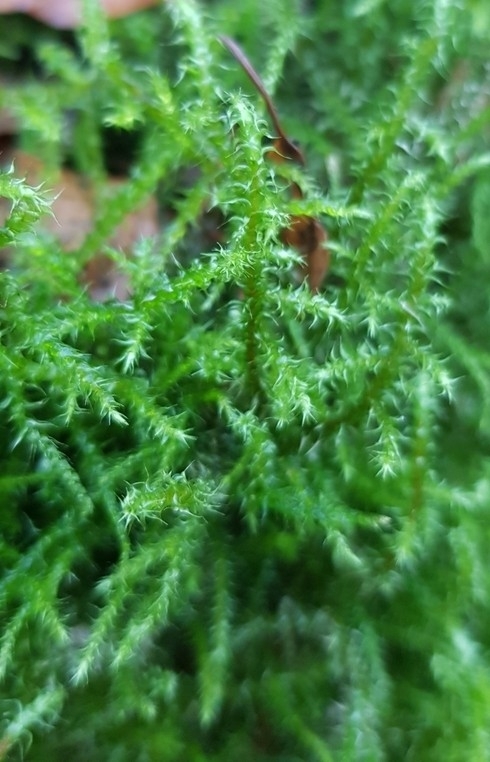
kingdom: Plantae
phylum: Bryophyta
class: Bryopsida
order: Hypnales
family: Hylocomiaceae
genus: Rhytidiadelphus
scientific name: Rhytidiadelphus squarrosus
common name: Springy turf-moss
